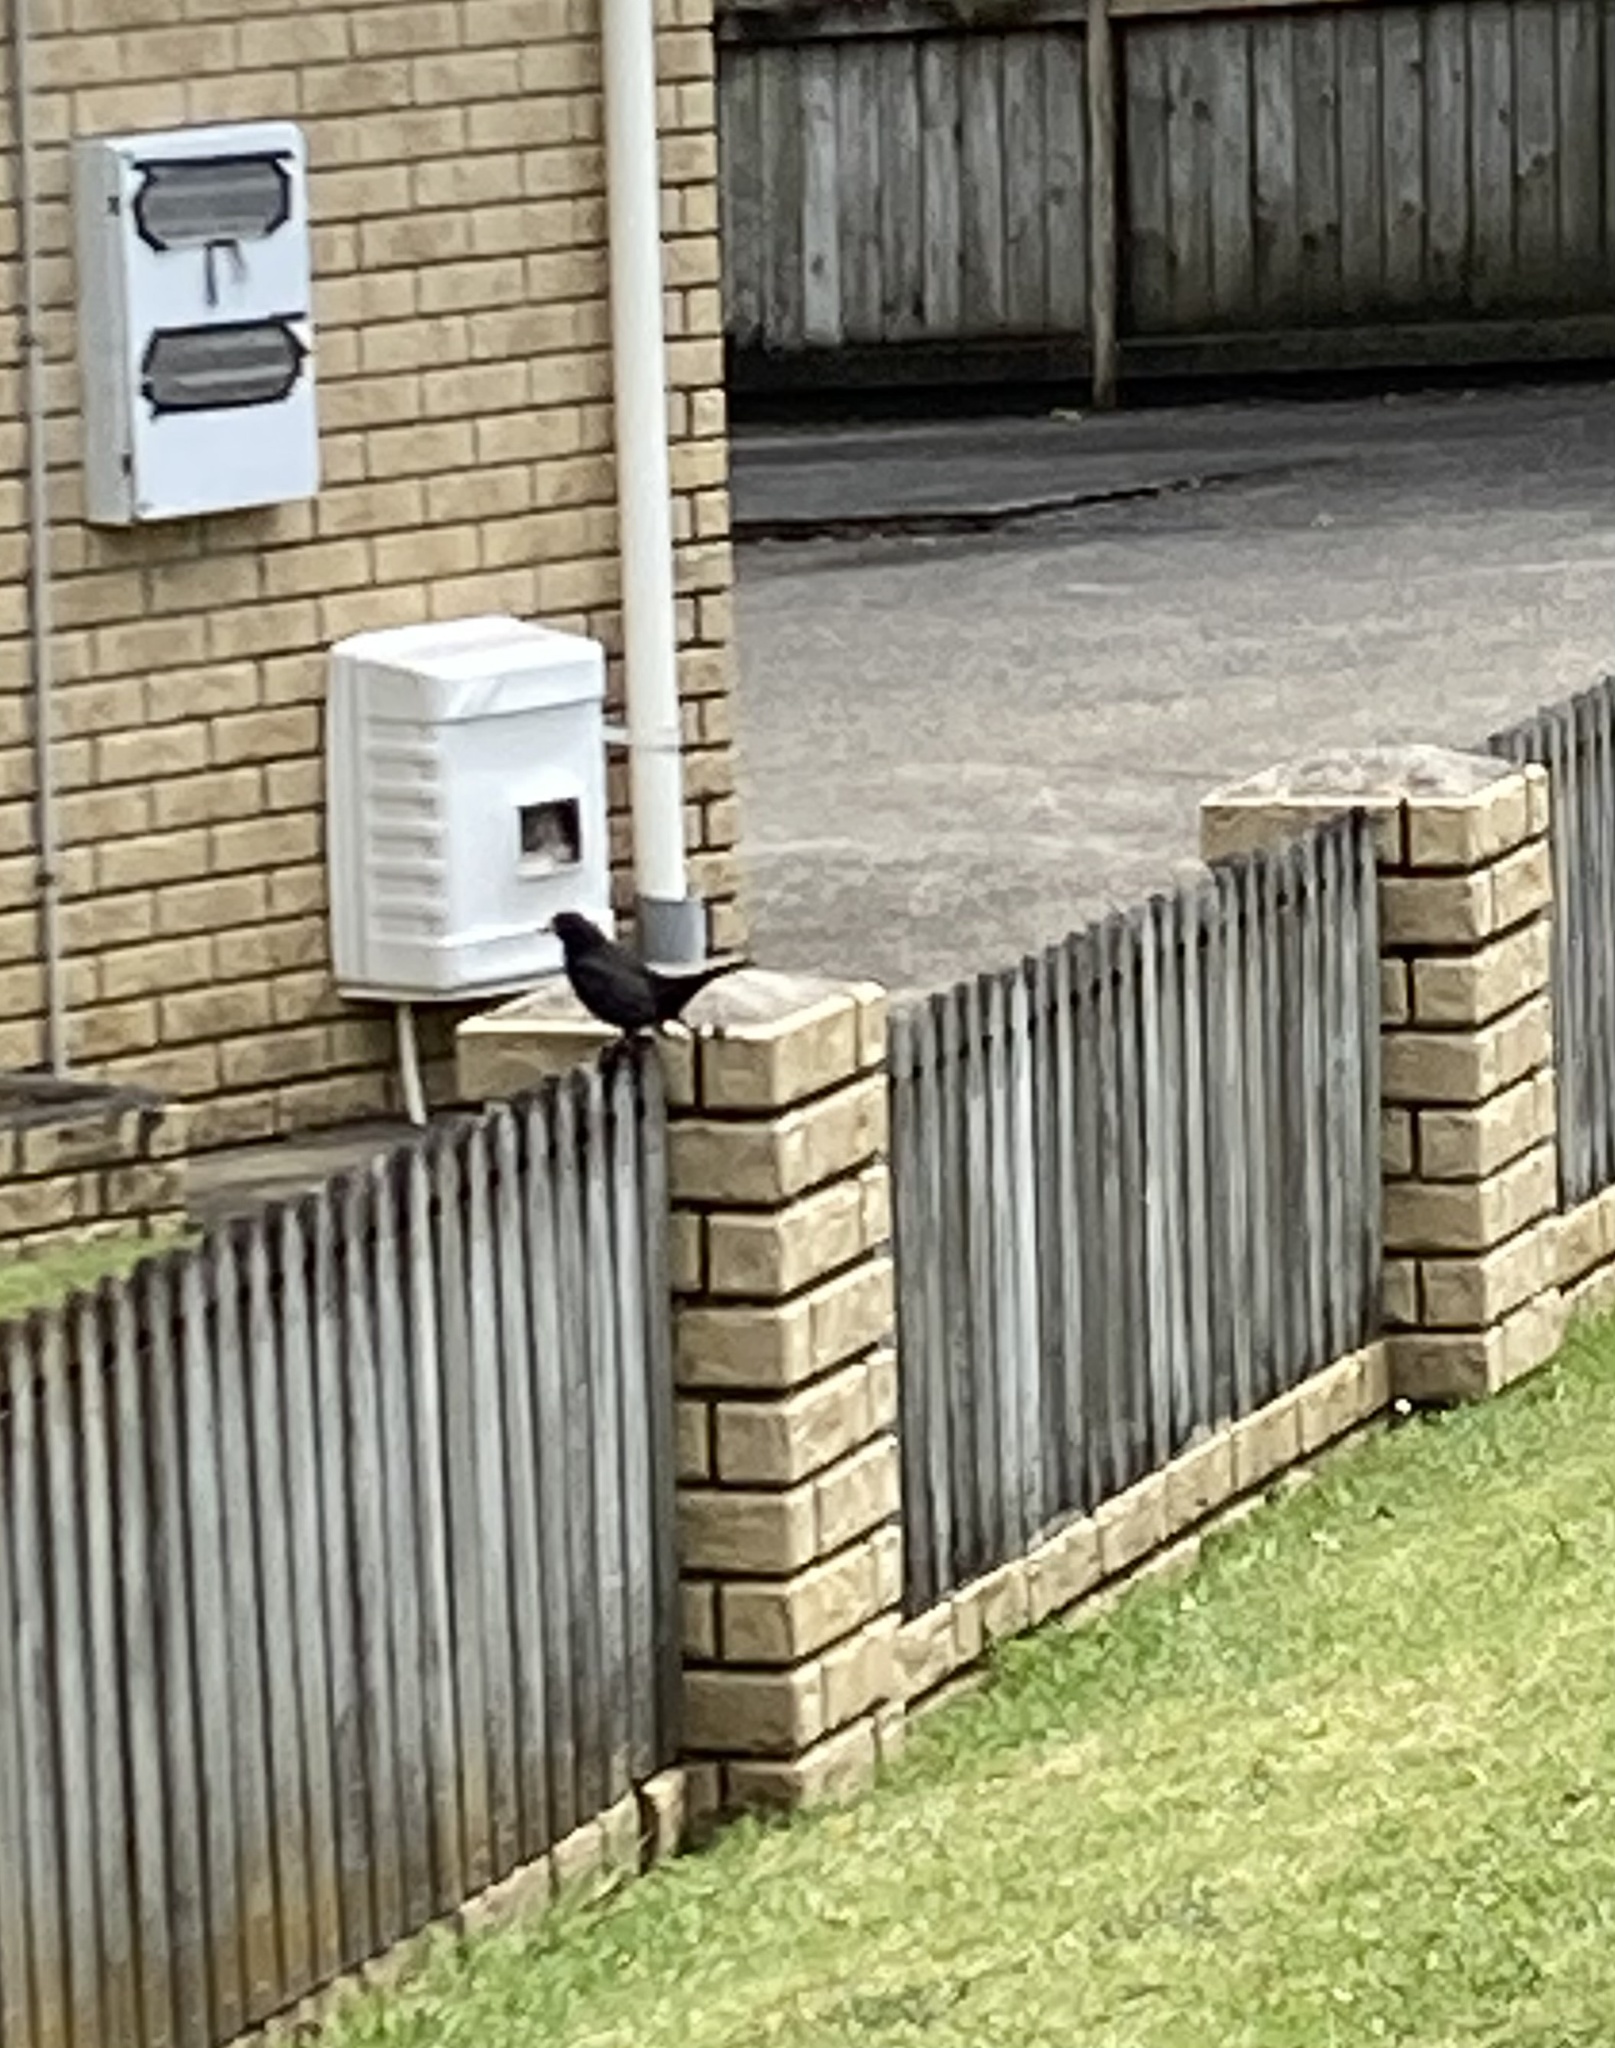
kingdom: Animalia
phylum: Chordata
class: Aves
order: Passeriformes
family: Turdidae
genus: Turdus
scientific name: Turdus merula
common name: Common blackbird
